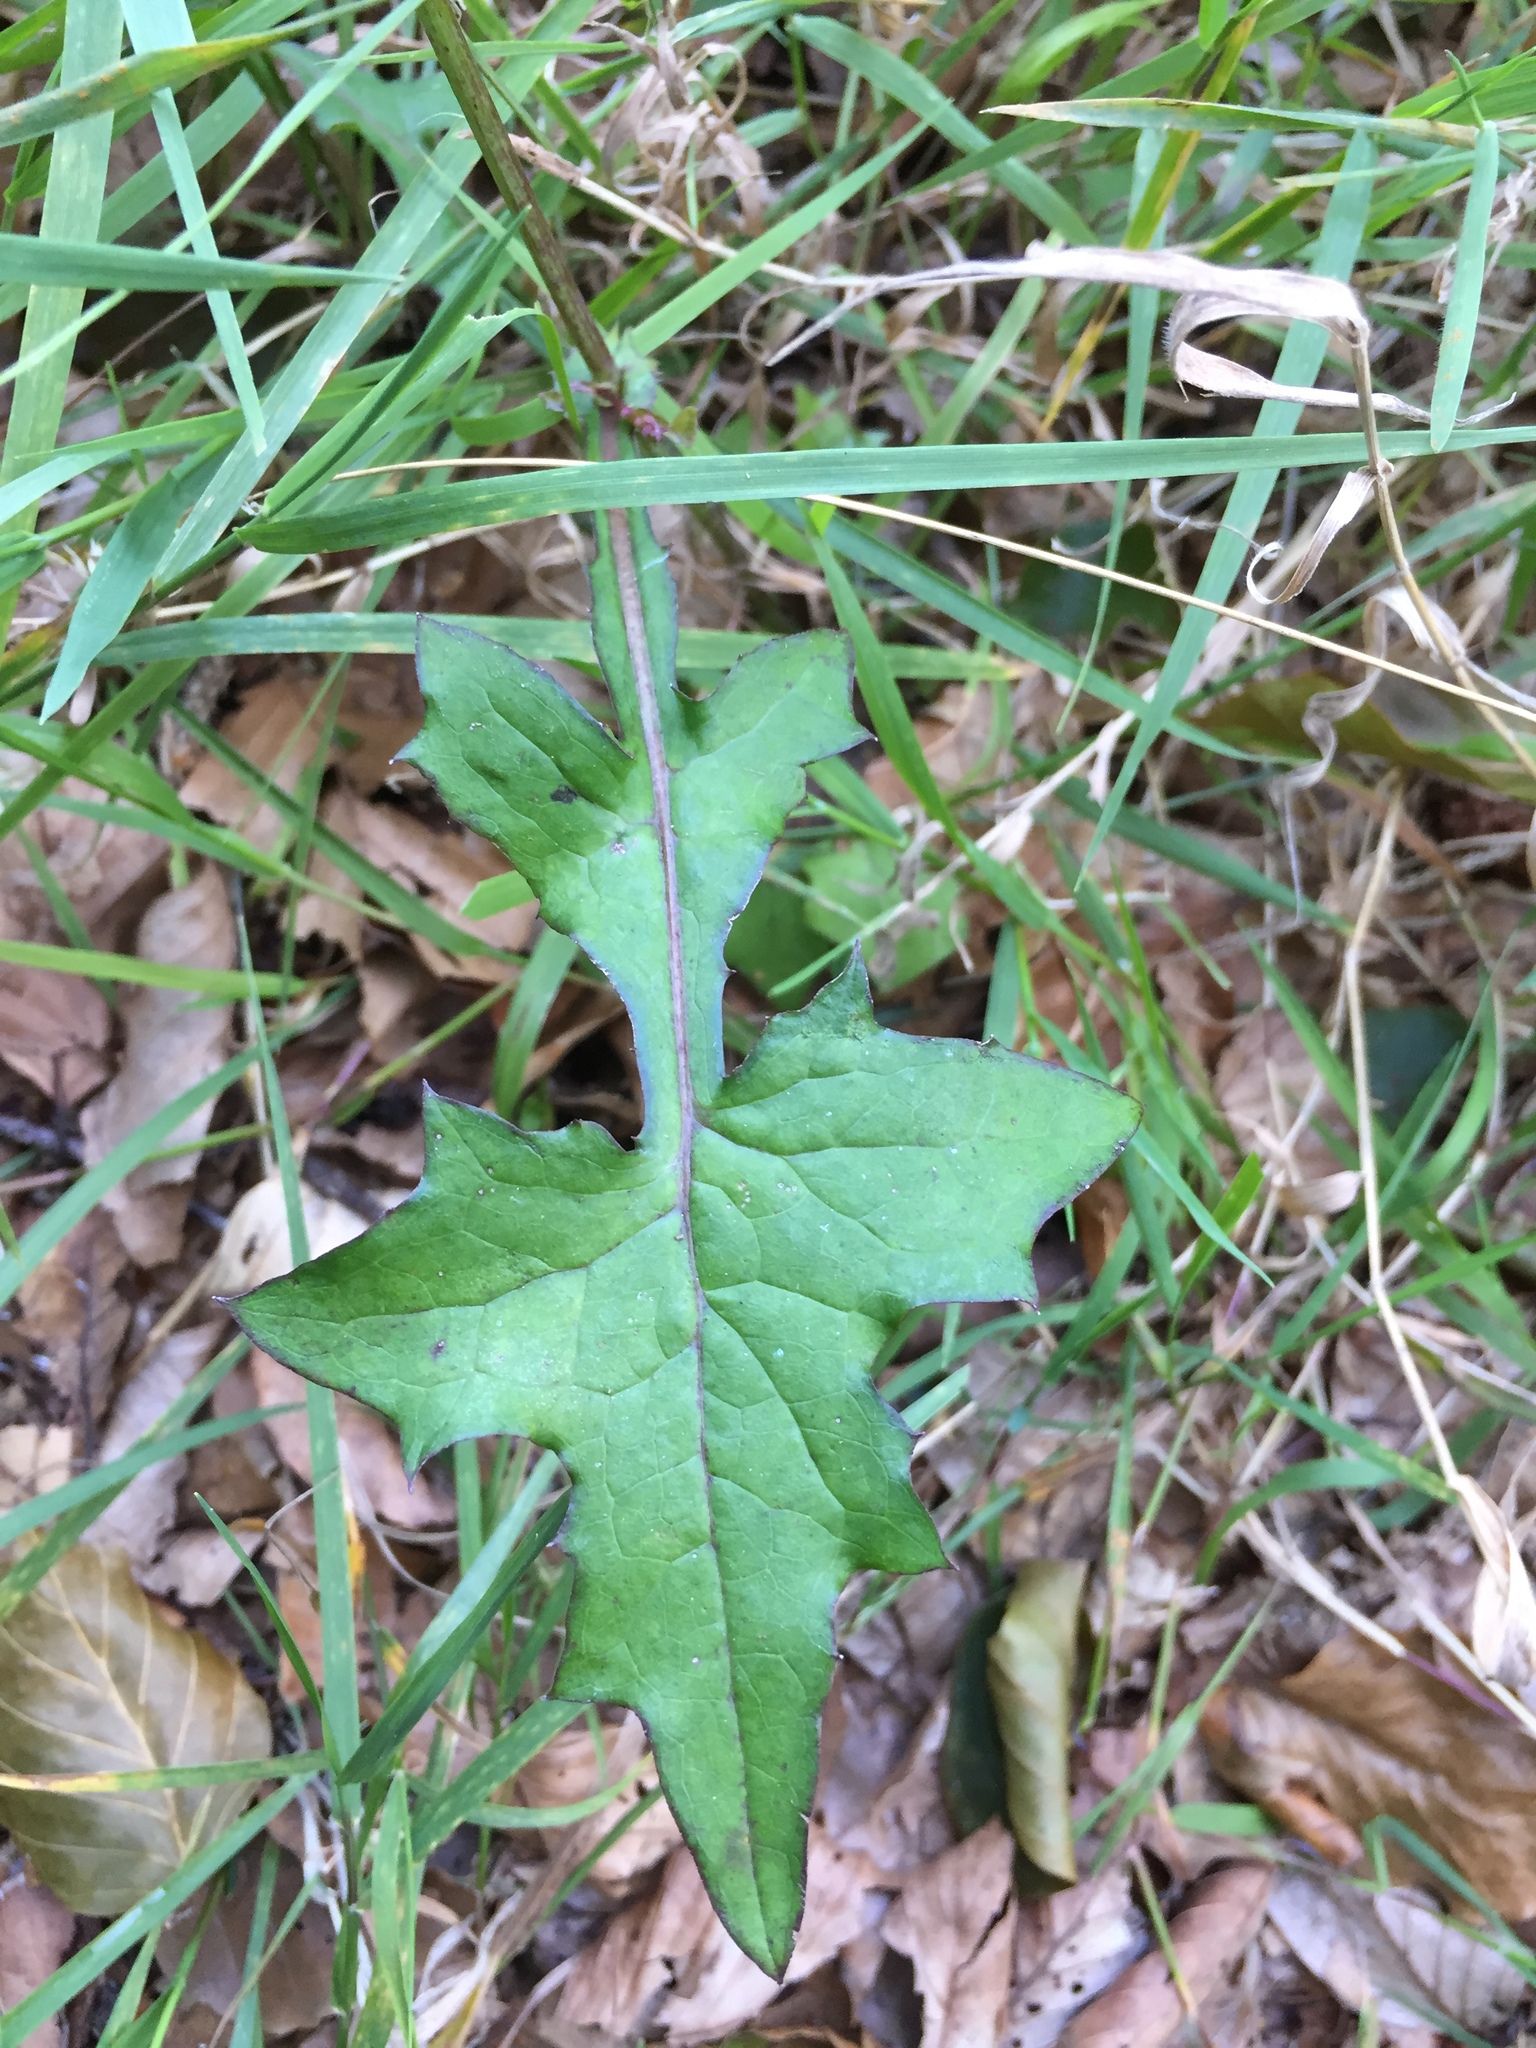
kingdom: Plantae
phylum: Tracheophyta
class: Magnoliopsida
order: Asterales
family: Asteraceae
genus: Mycelis
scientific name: Mycelis muralis
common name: Wall lettuce
